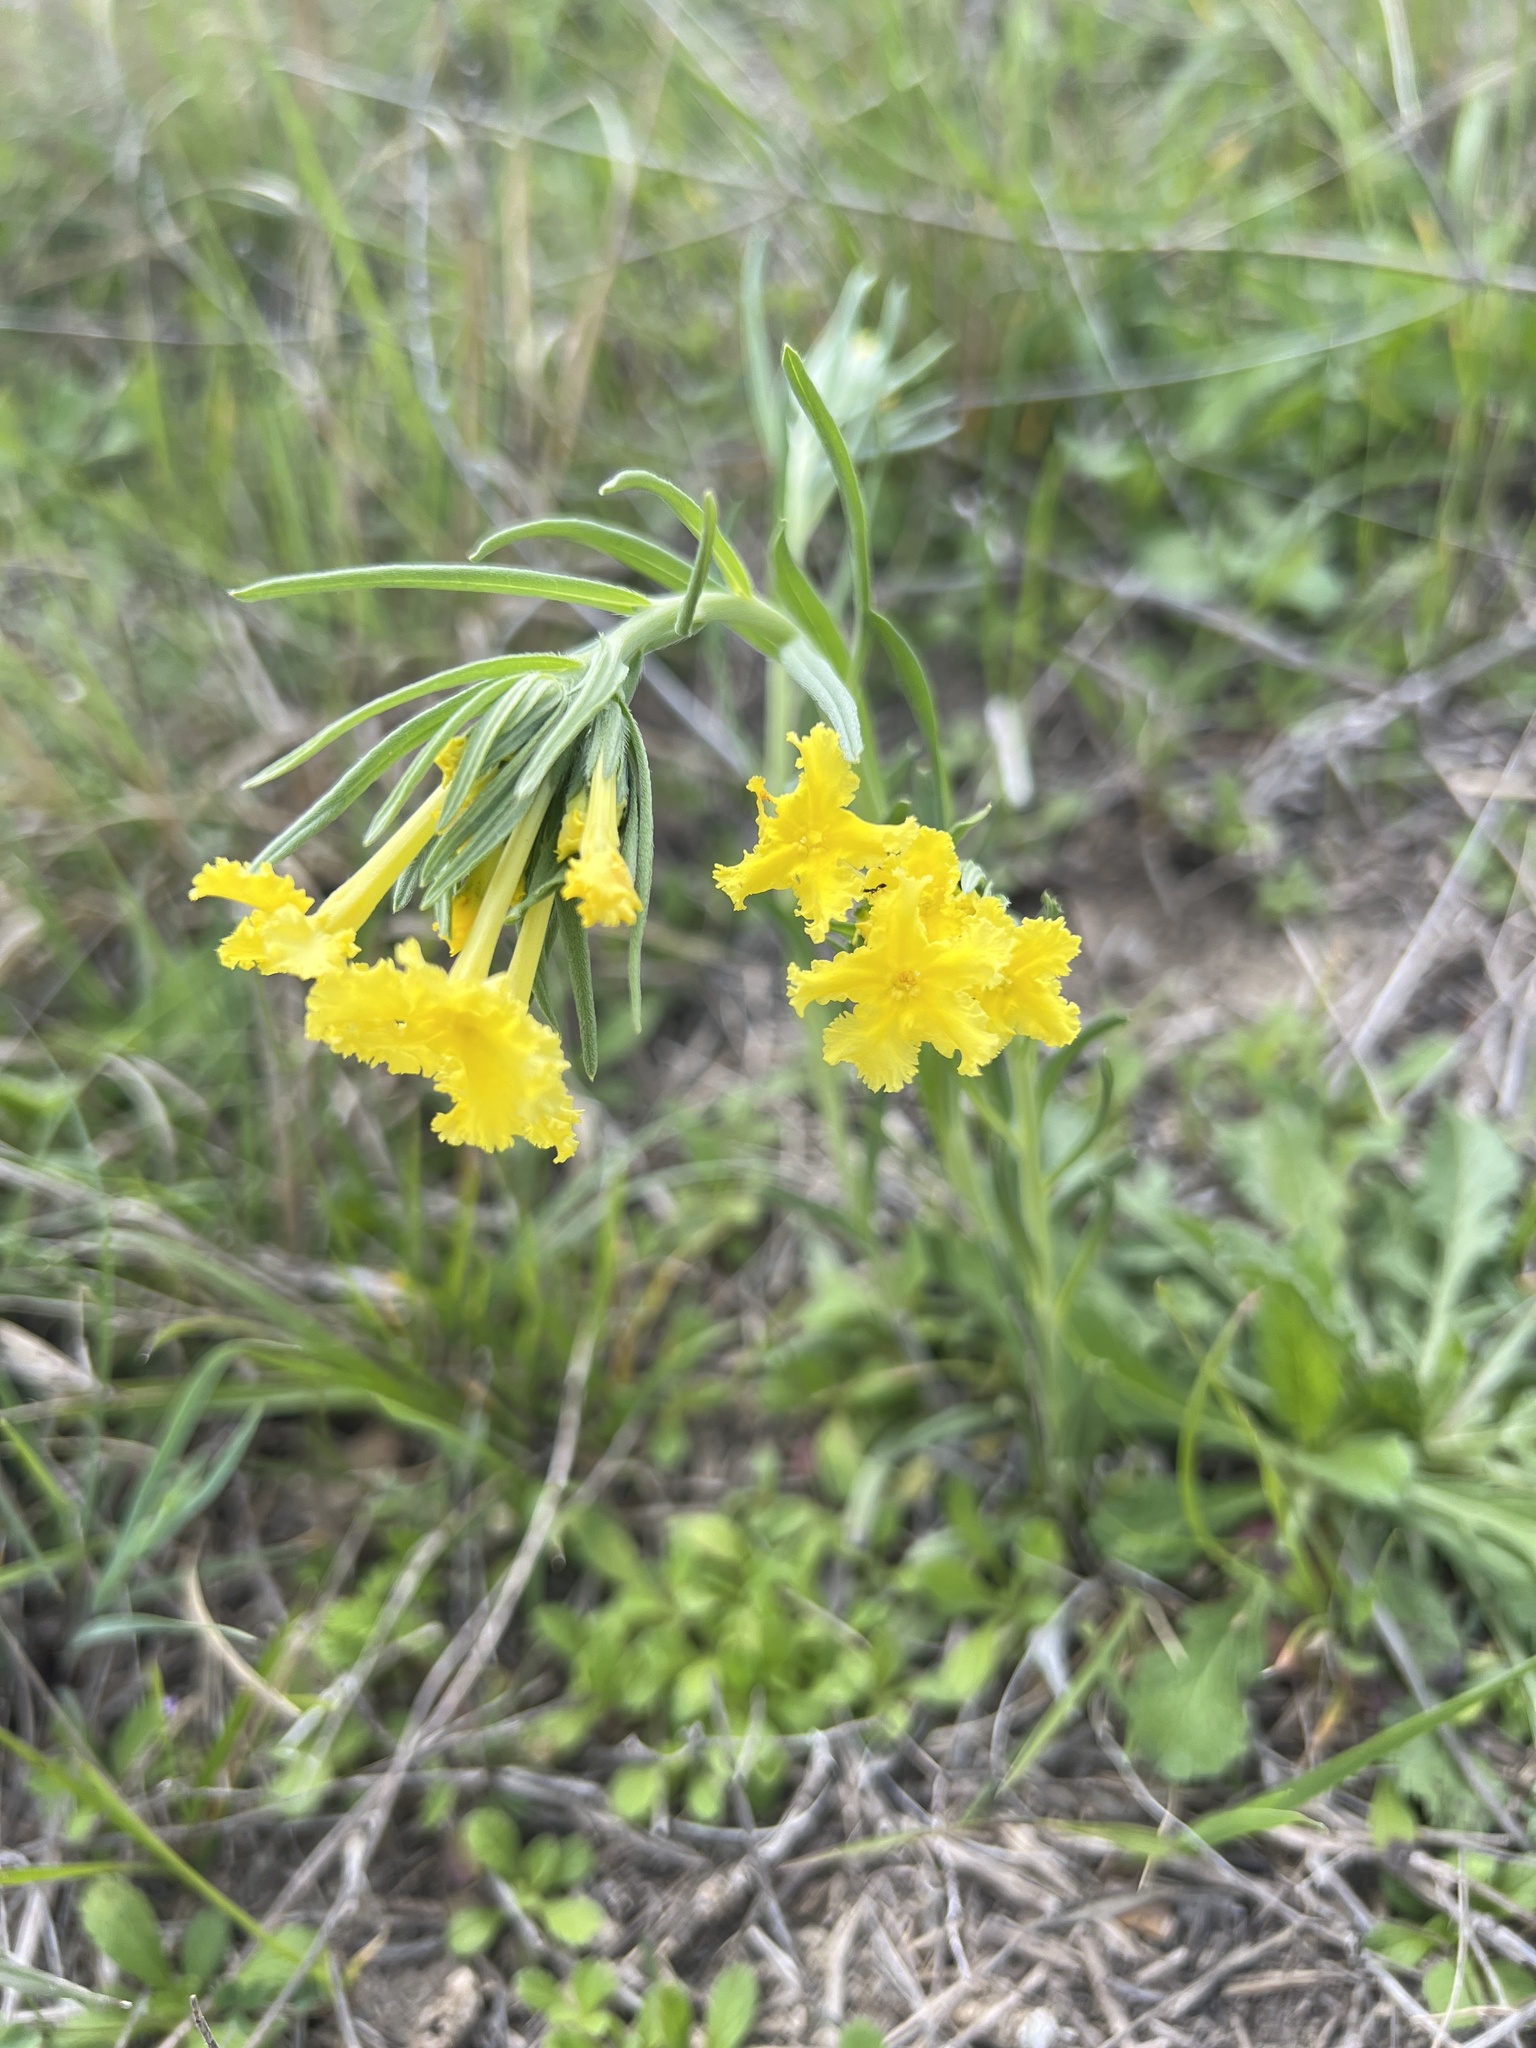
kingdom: Plantae
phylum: Tracheophyta
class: Magnoliopsida
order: Boraginales
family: Boraginaceae
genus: Lithospermum
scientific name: Lithospermum incisum
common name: Fringed gromwell
